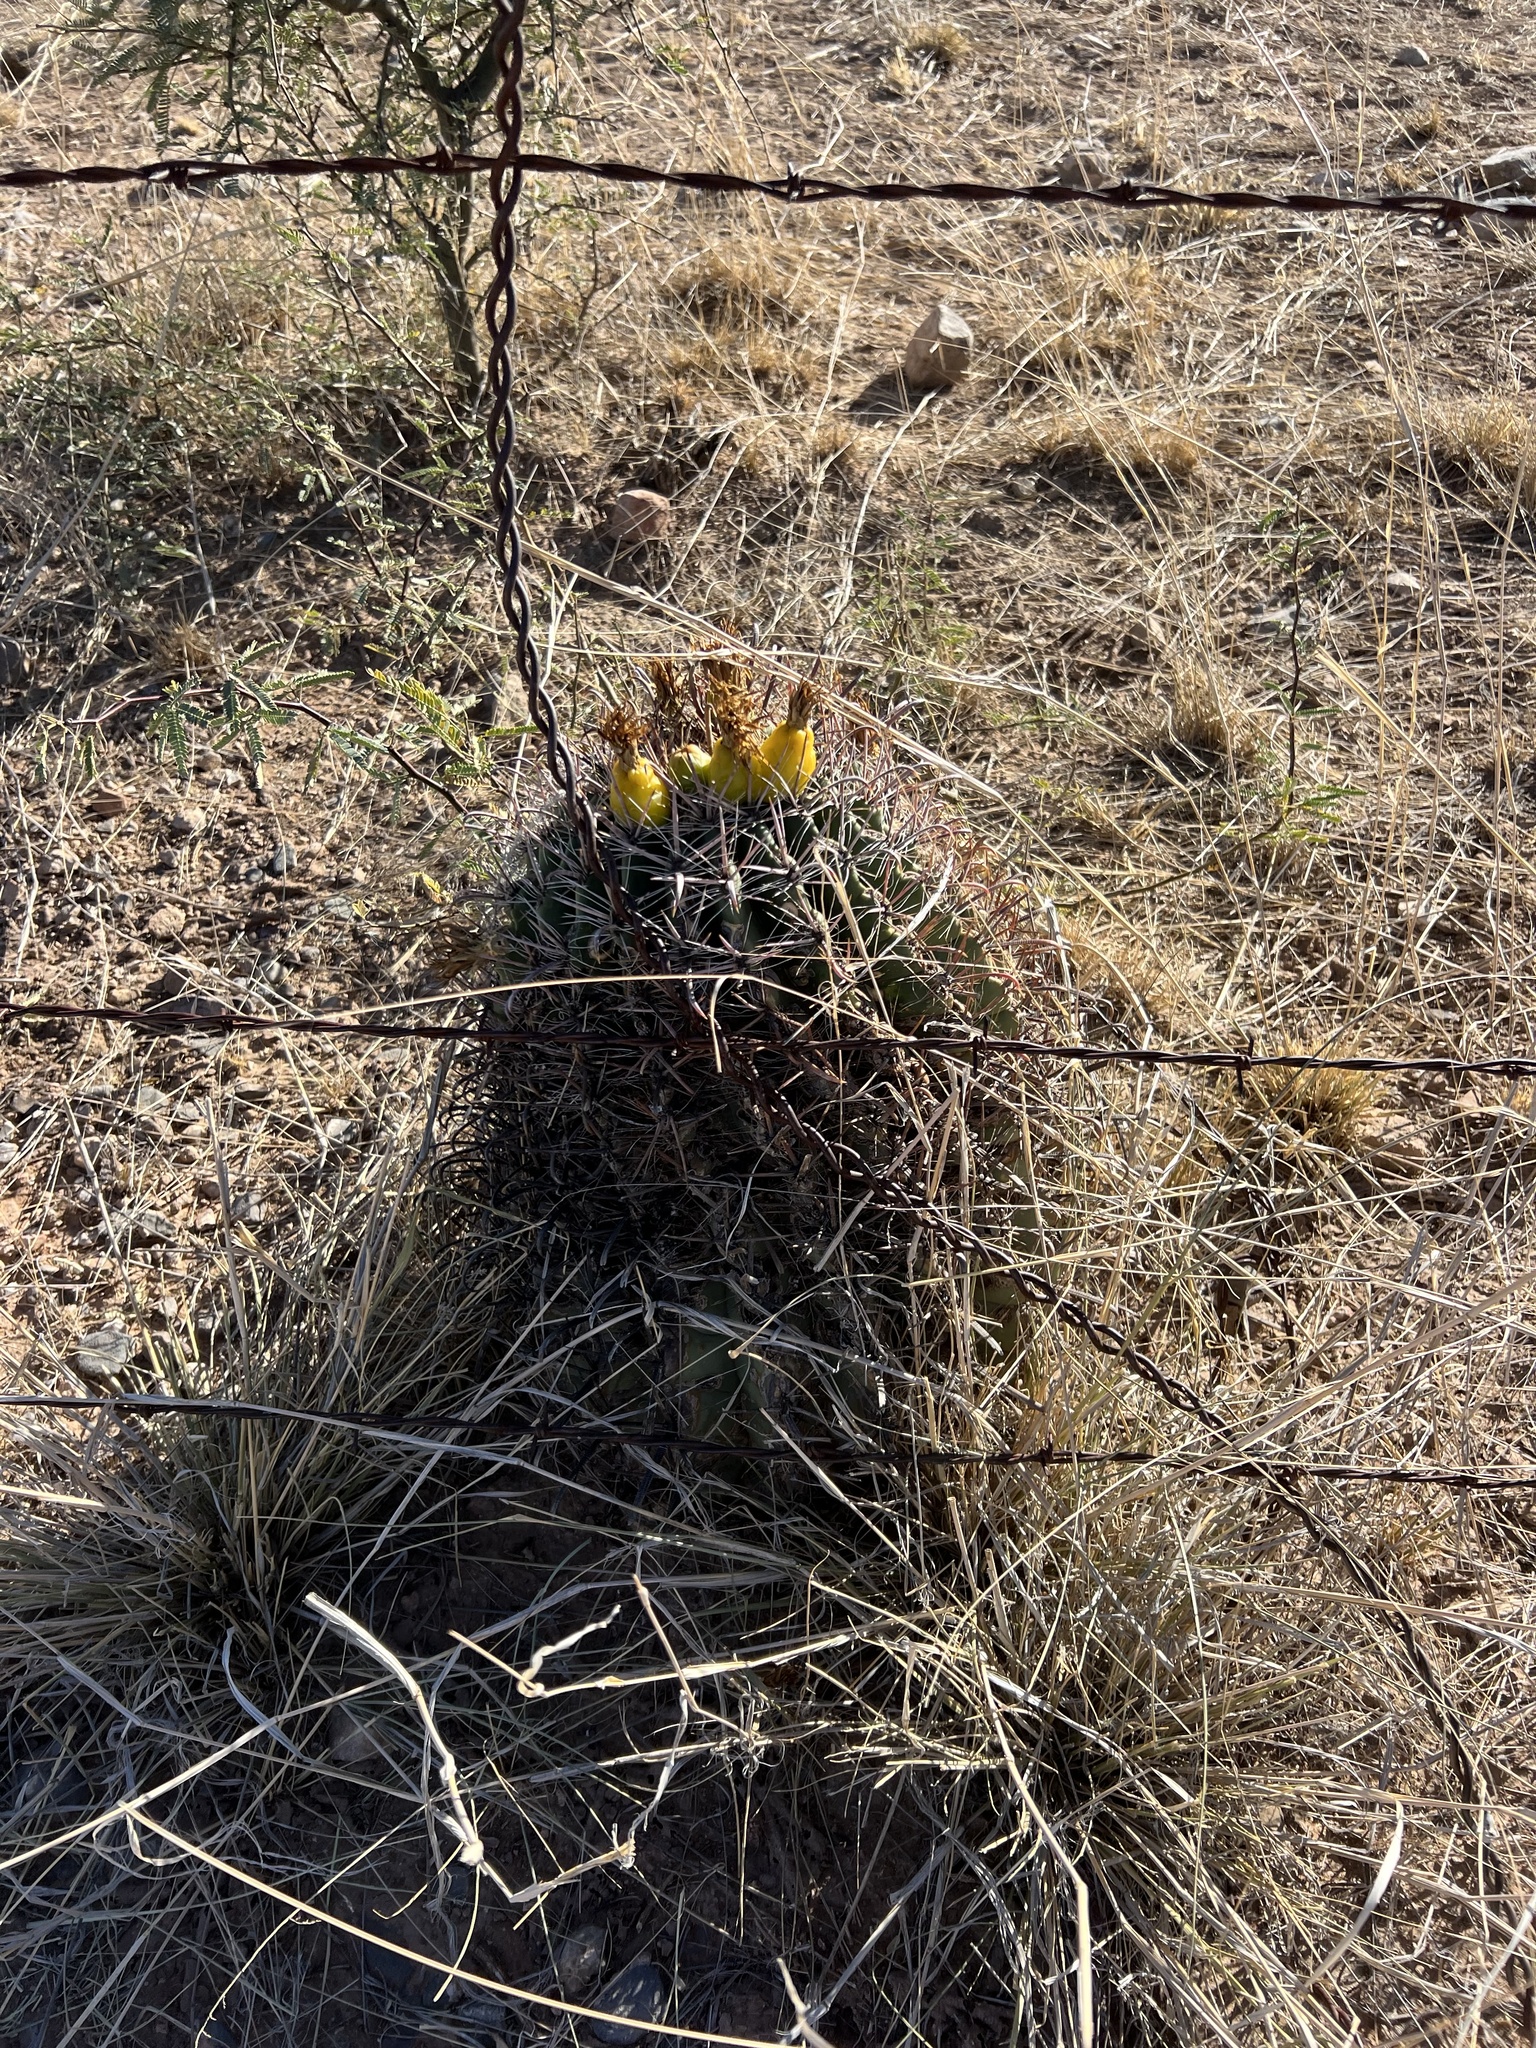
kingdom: Plantae
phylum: Tracheophyta
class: Magnoliopsida
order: Caryophyllales
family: Cactaceae
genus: Ferocactus
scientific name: Ferocactus wislizeni
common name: Candy barrel cactus
